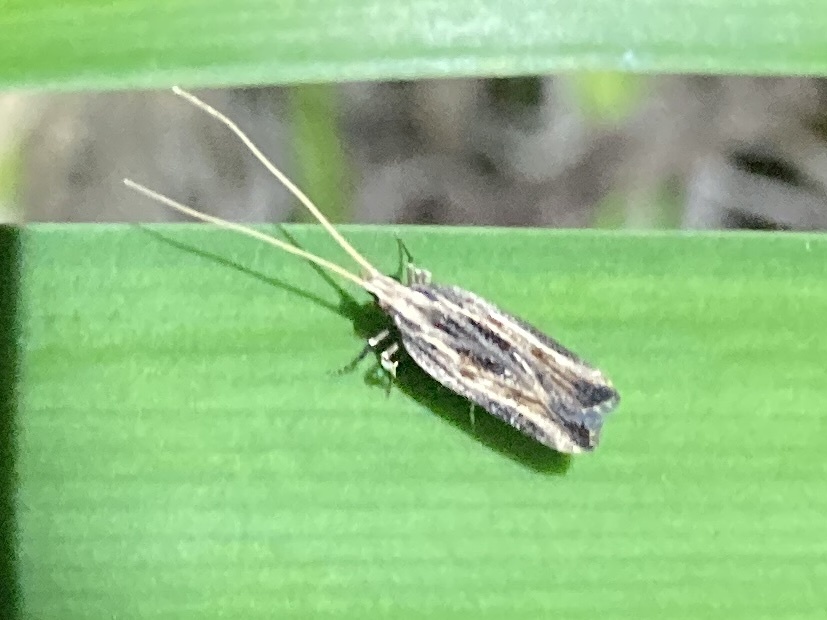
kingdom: Animalia
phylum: Arthropoda
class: Insecta
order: Lepidoptera
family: Lecithoceridae
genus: Sarisophora
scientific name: Sarisophora leucoscia
